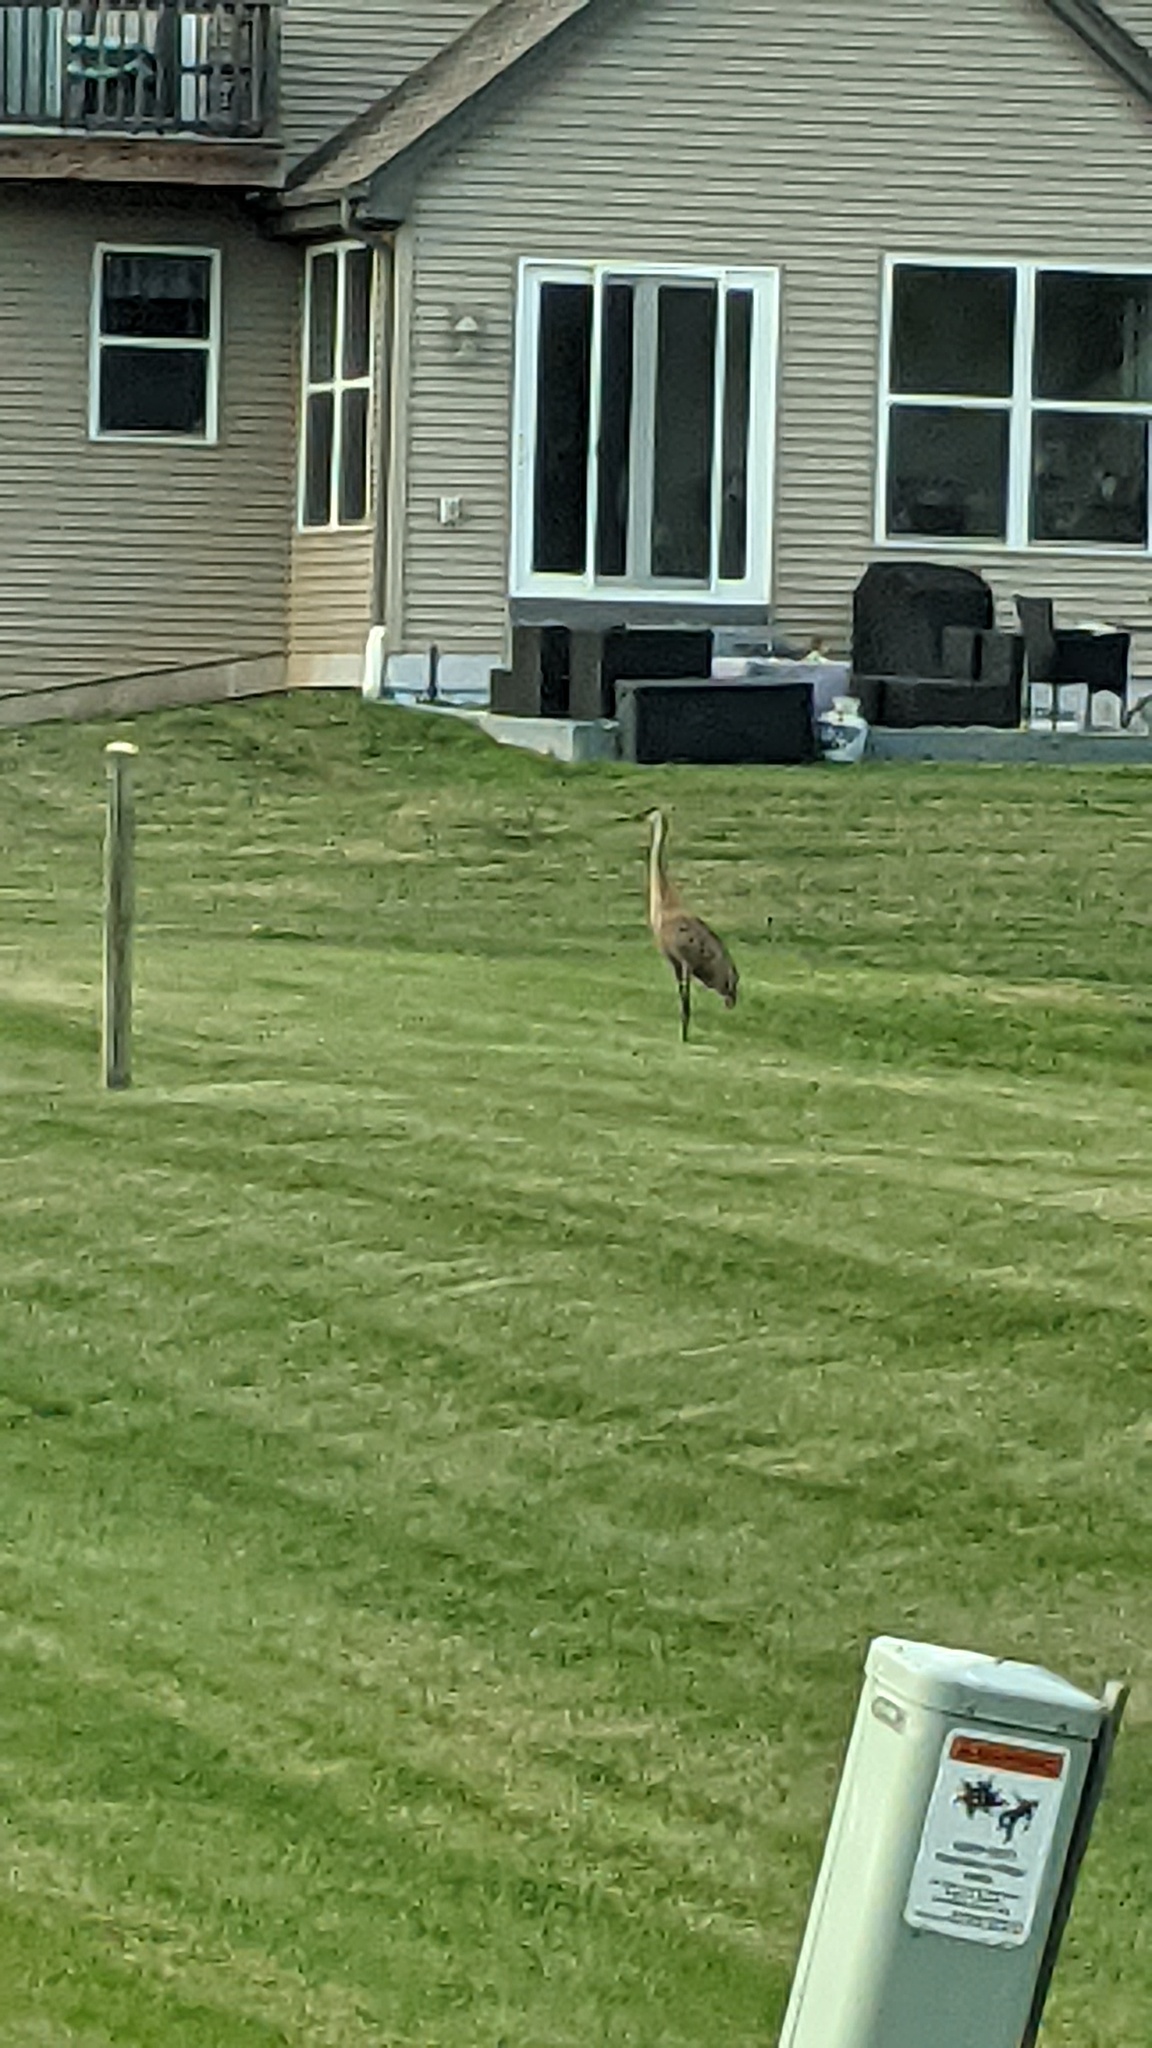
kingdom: Animalia
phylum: Chordata
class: Aves
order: Gruiformes
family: Gruidae
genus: Grus
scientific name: Grus canadensis
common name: Sandhill crane
